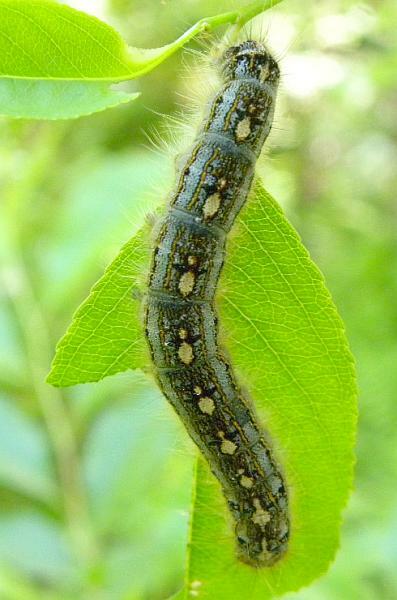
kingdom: Animalia
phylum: Arthropoda
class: Insecta
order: Lepidoptera
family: Lasiocampidae
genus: Malacosoma
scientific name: Malacosoma disstria
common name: Forest tent caterpillar
